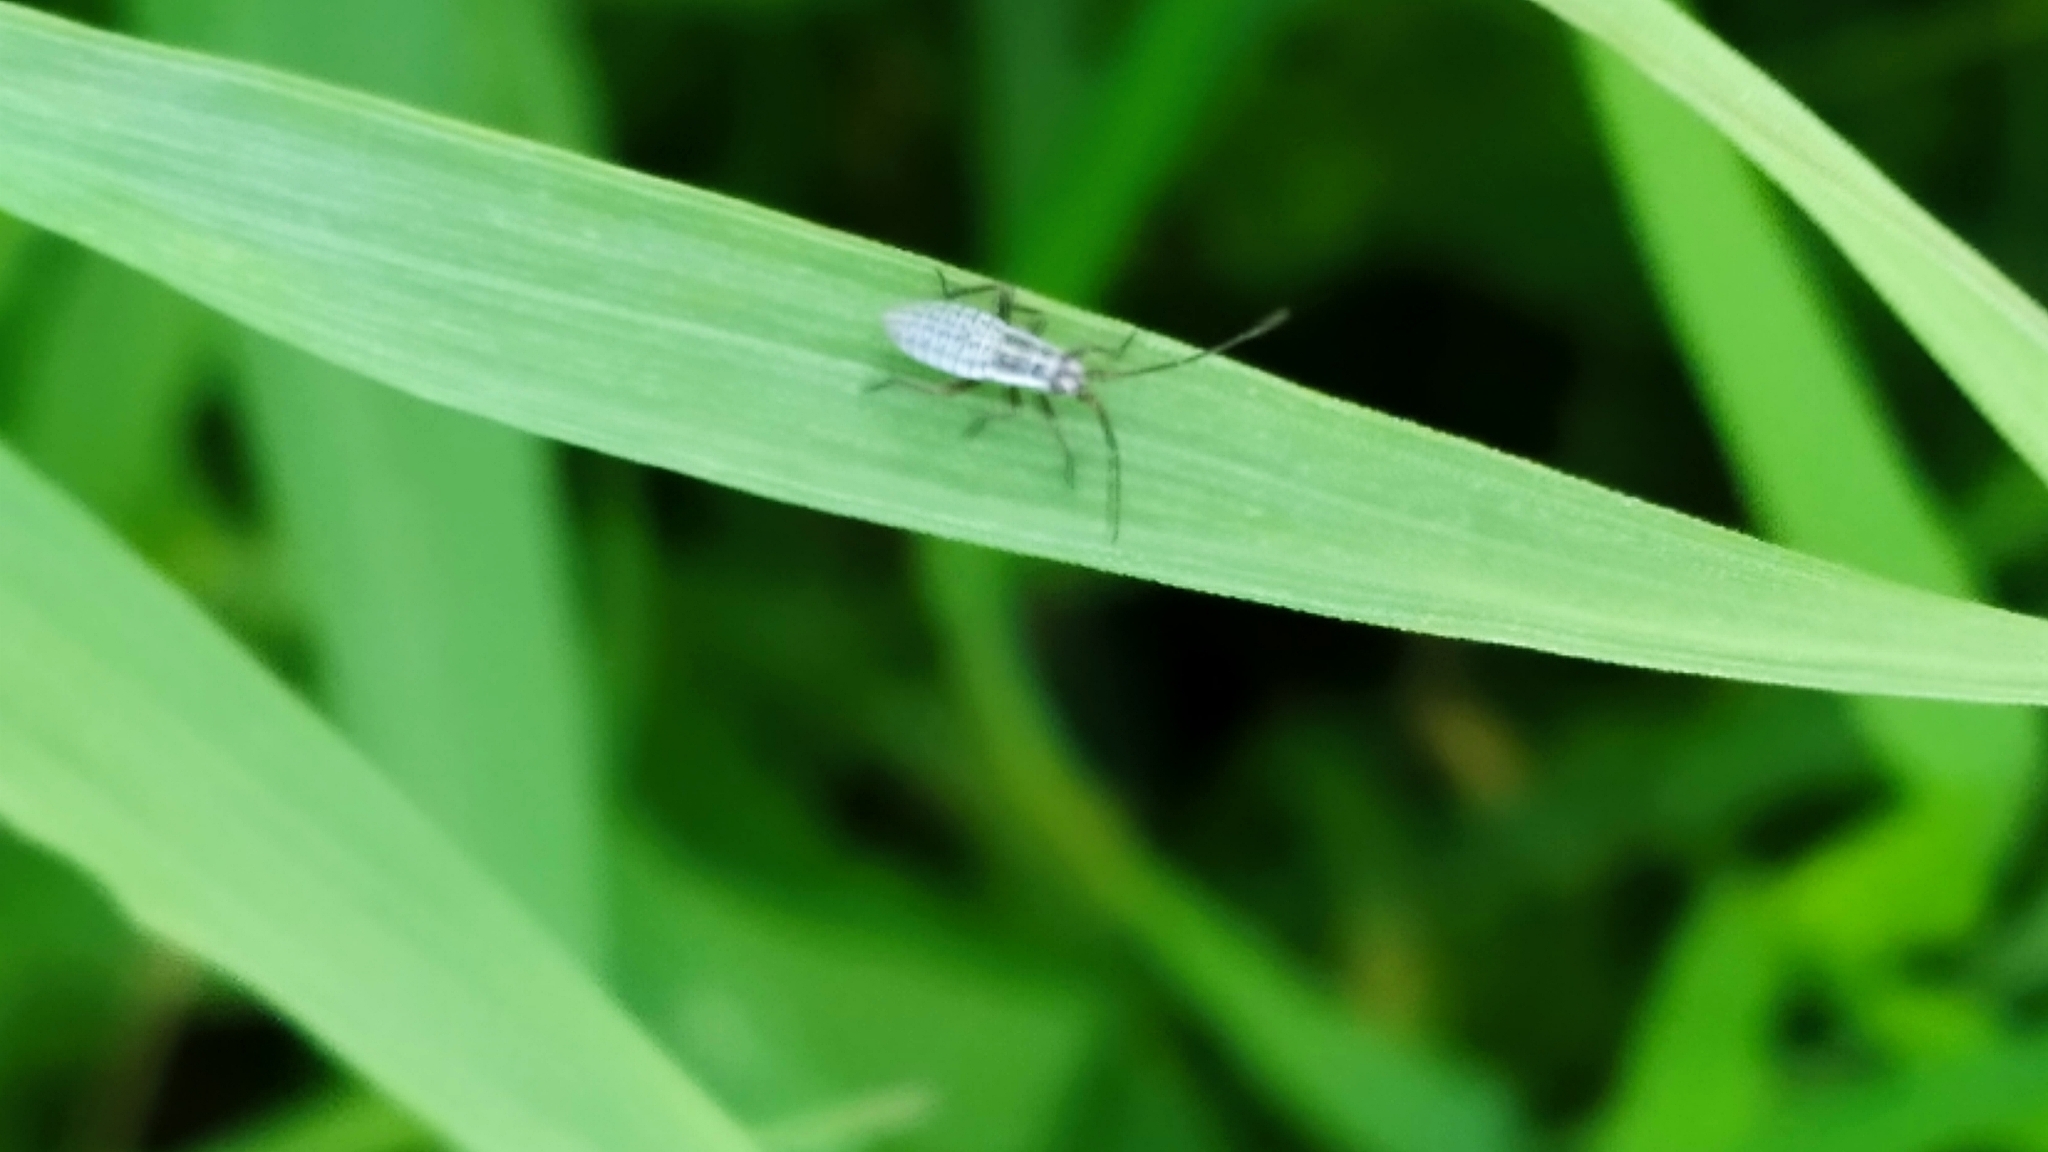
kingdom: Animalia
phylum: Arthropoda
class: Insecta
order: Hemiptera
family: Miridae
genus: Leptopterna
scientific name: Leptopterna dolabrata
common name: Meadow plant bug
